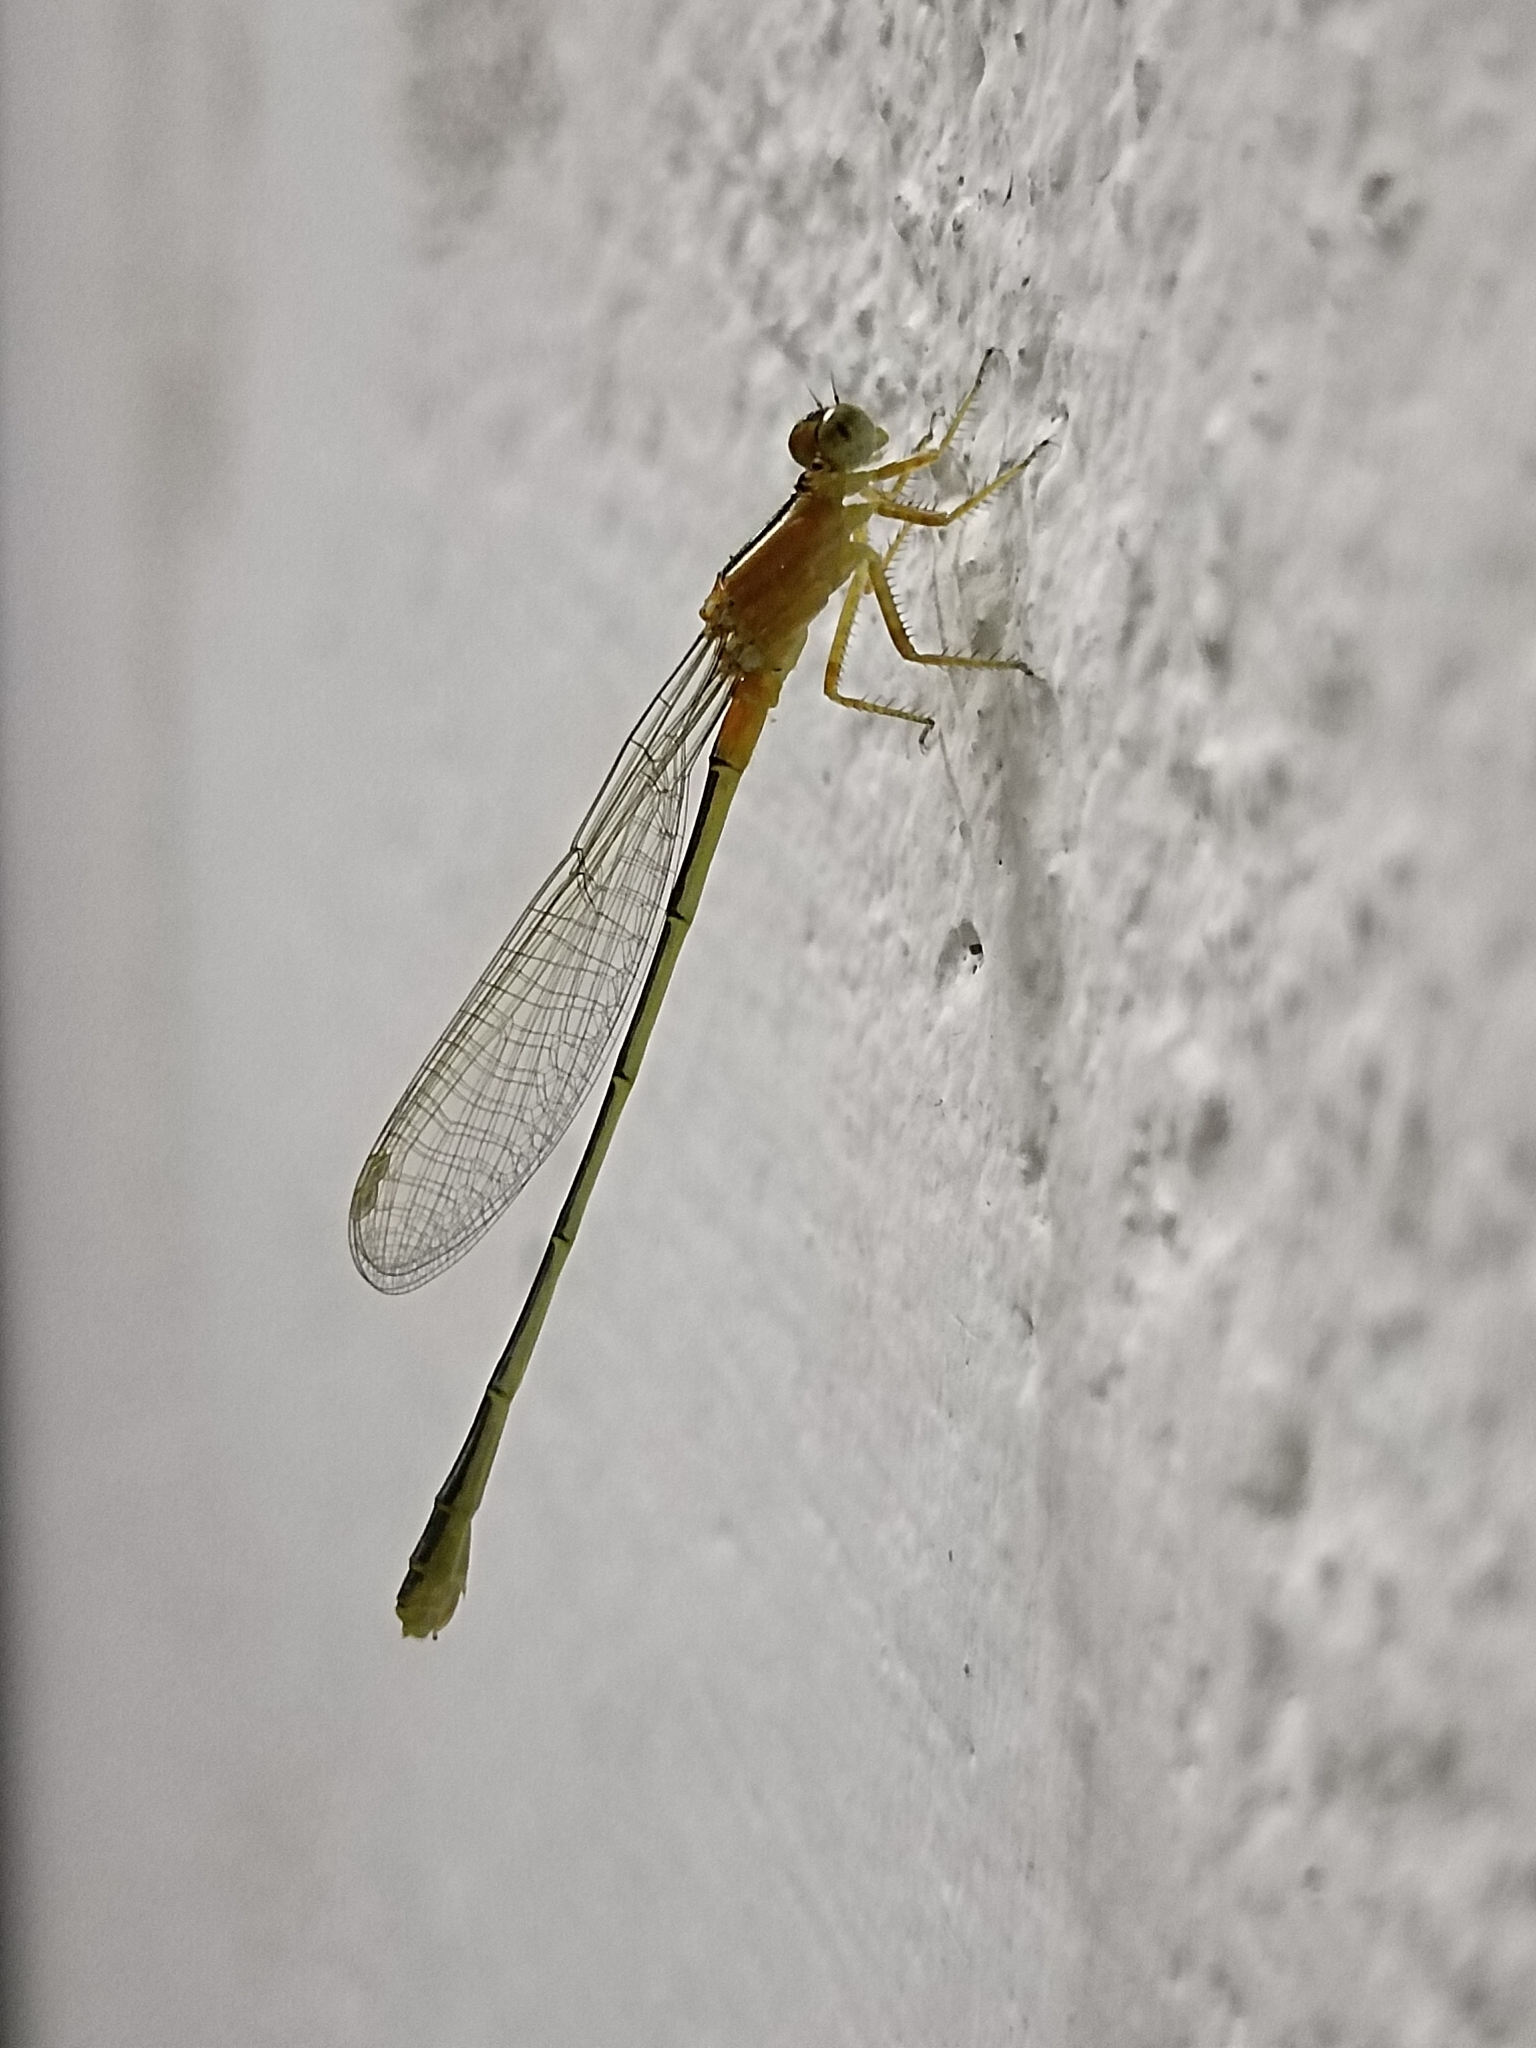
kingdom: Animalia
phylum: Arthropoda
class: Insecta
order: Odonata
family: Coenagrionidae
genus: Ischnura
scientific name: Ischnura senegalensis
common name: Tropical bluetail
